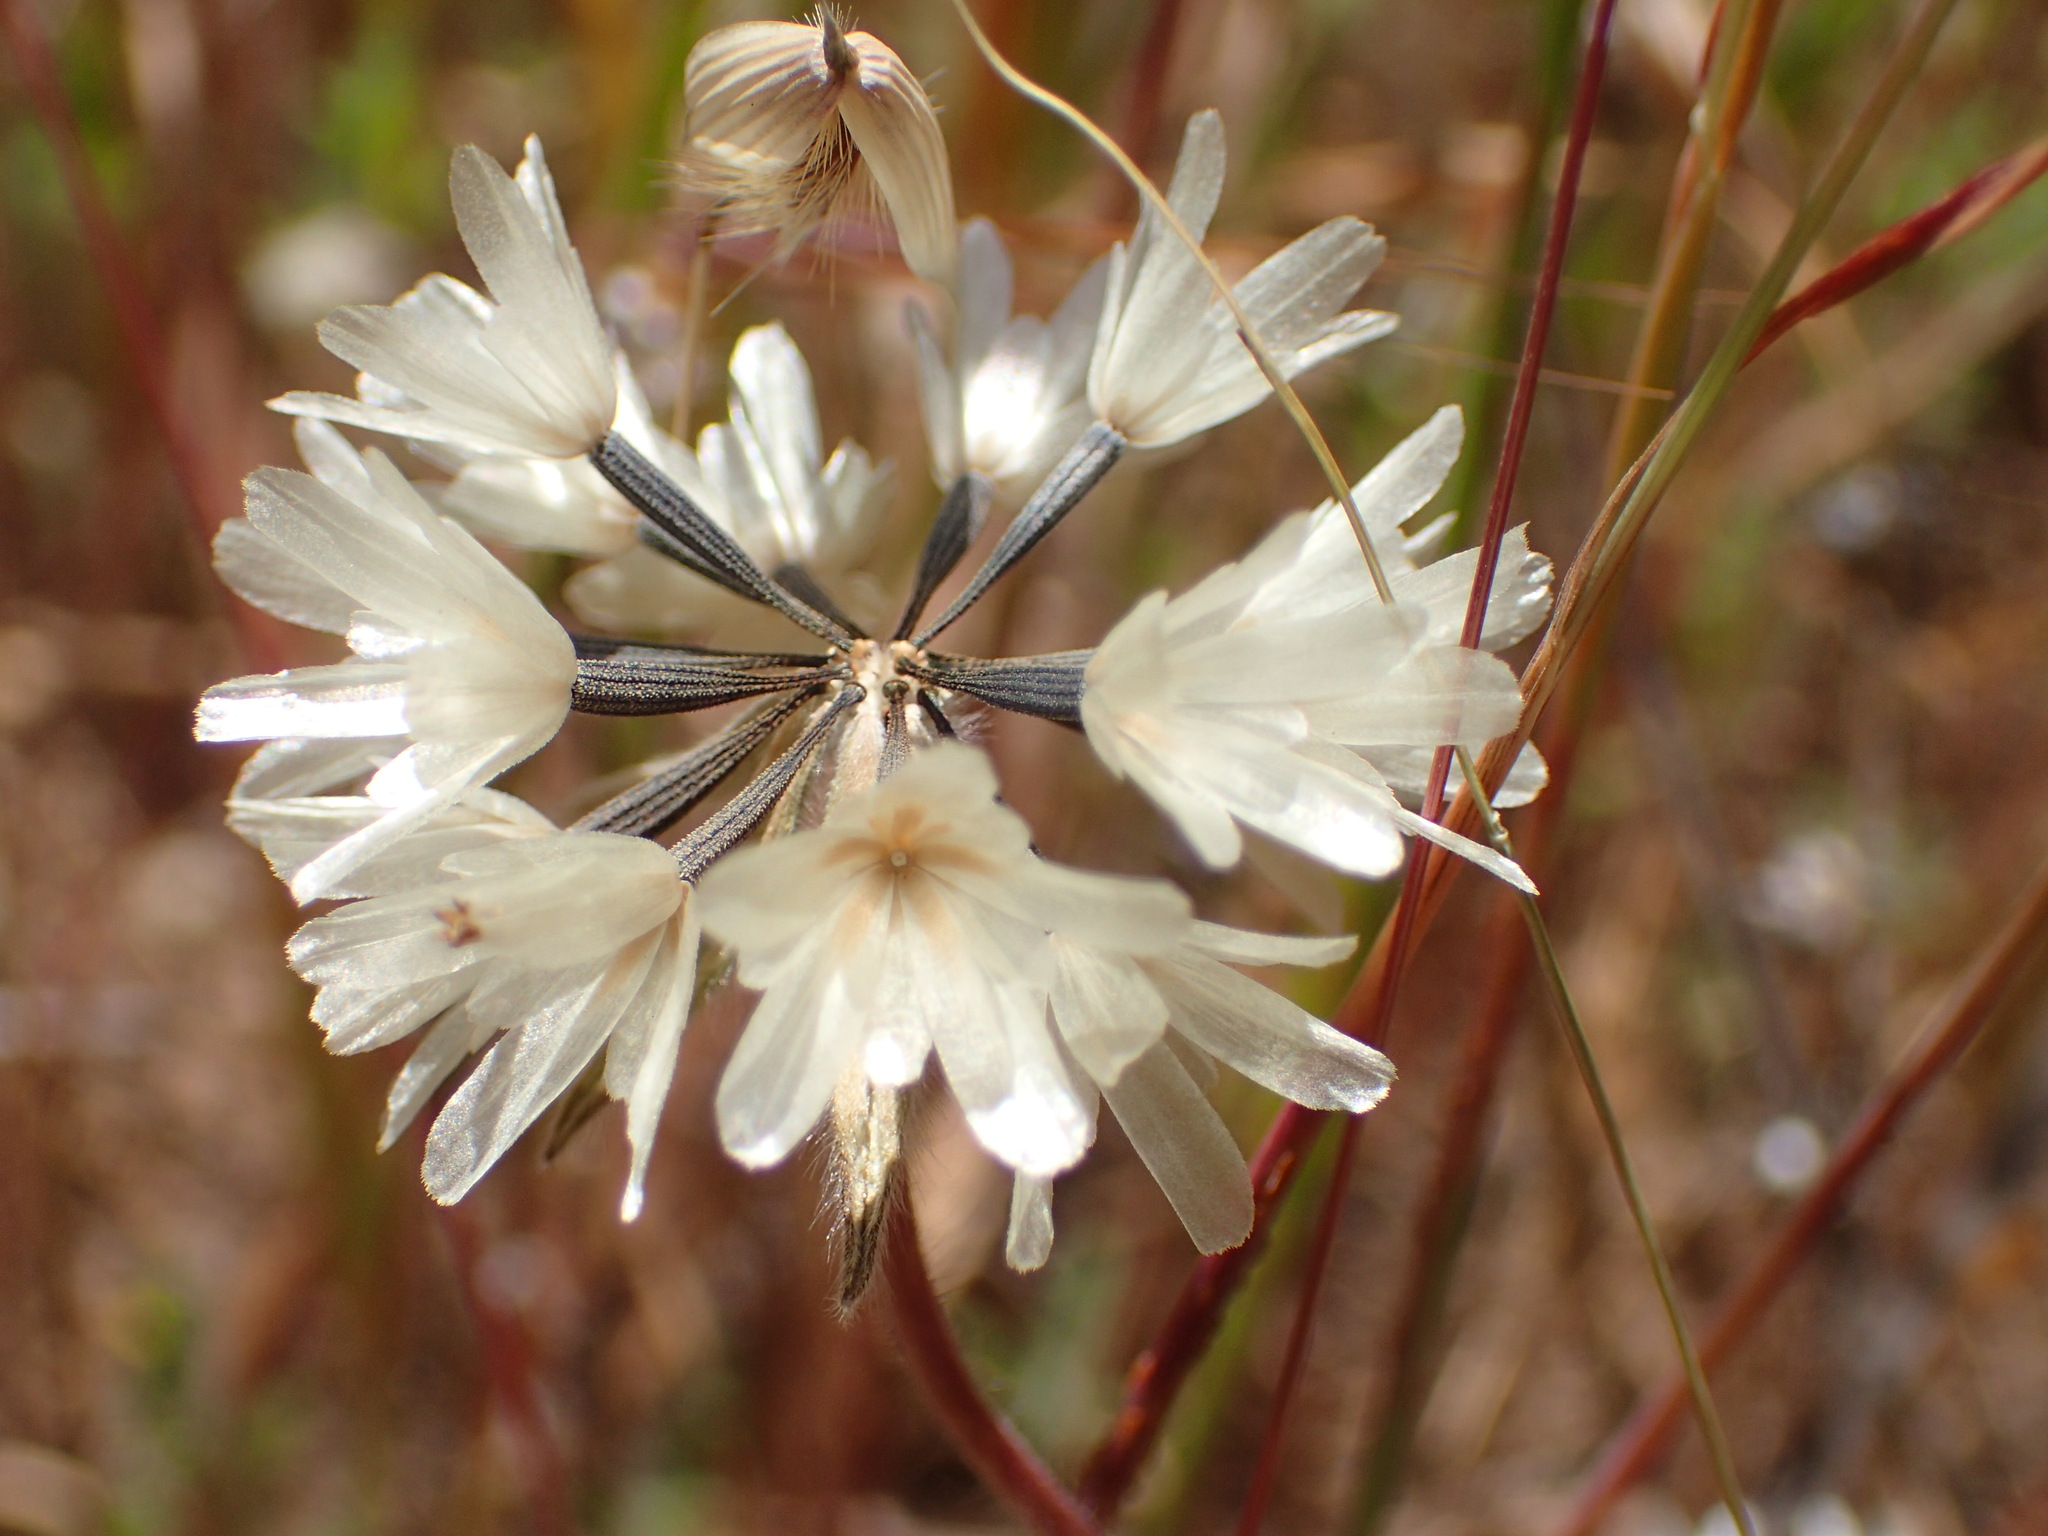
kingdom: Plantae
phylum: Tracheophyta
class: Magnoliopsida
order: Asterales
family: Asteraceae
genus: Achyrachaena
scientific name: Achyrachaena mollis
